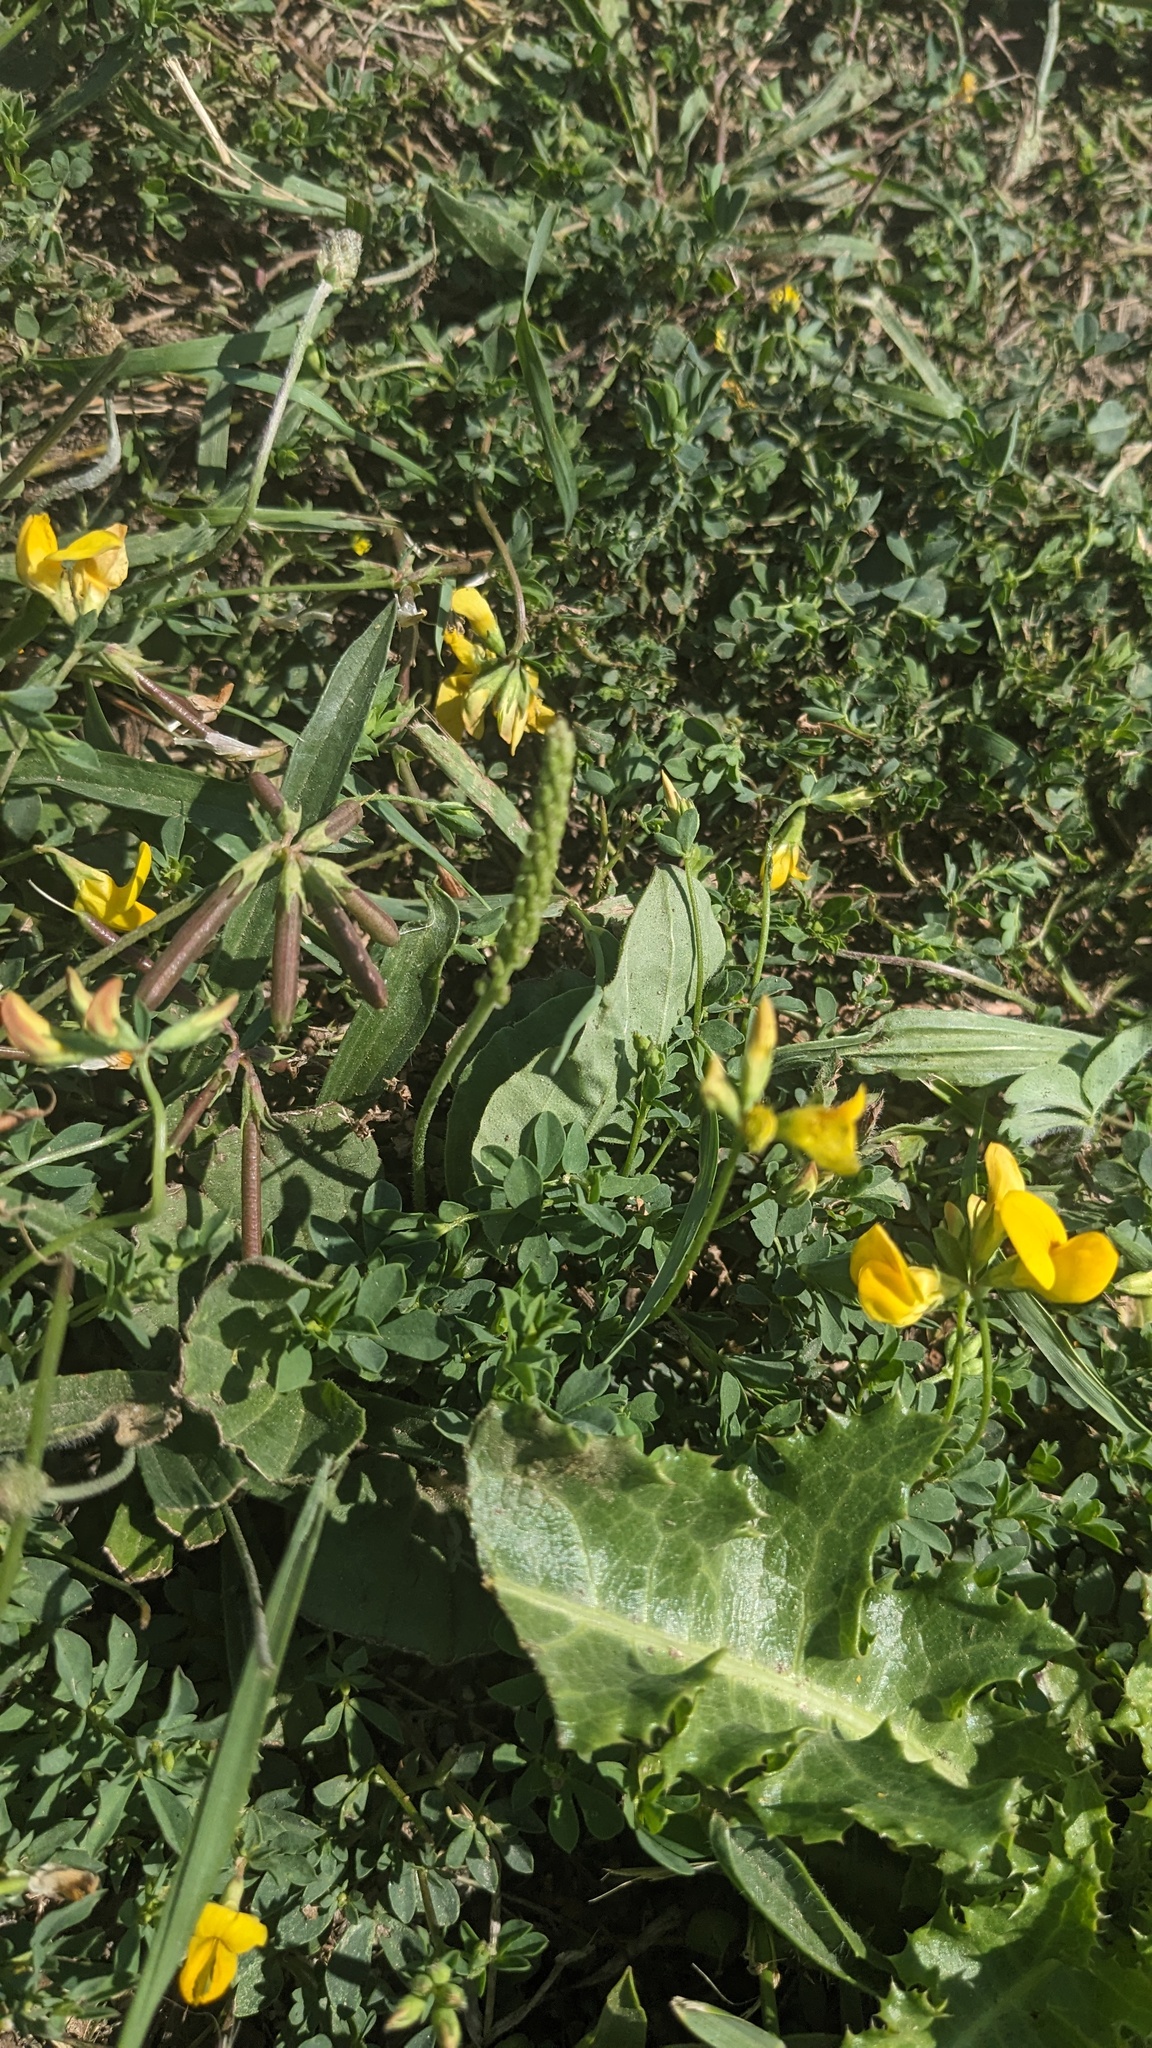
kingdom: Plantae
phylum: Tracheophyta
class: Magnoliopsida
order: Fabales
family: Fabaceae
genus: Lotus
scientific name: Lotus corniculatus
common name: Common bird's-foot-trefoil
